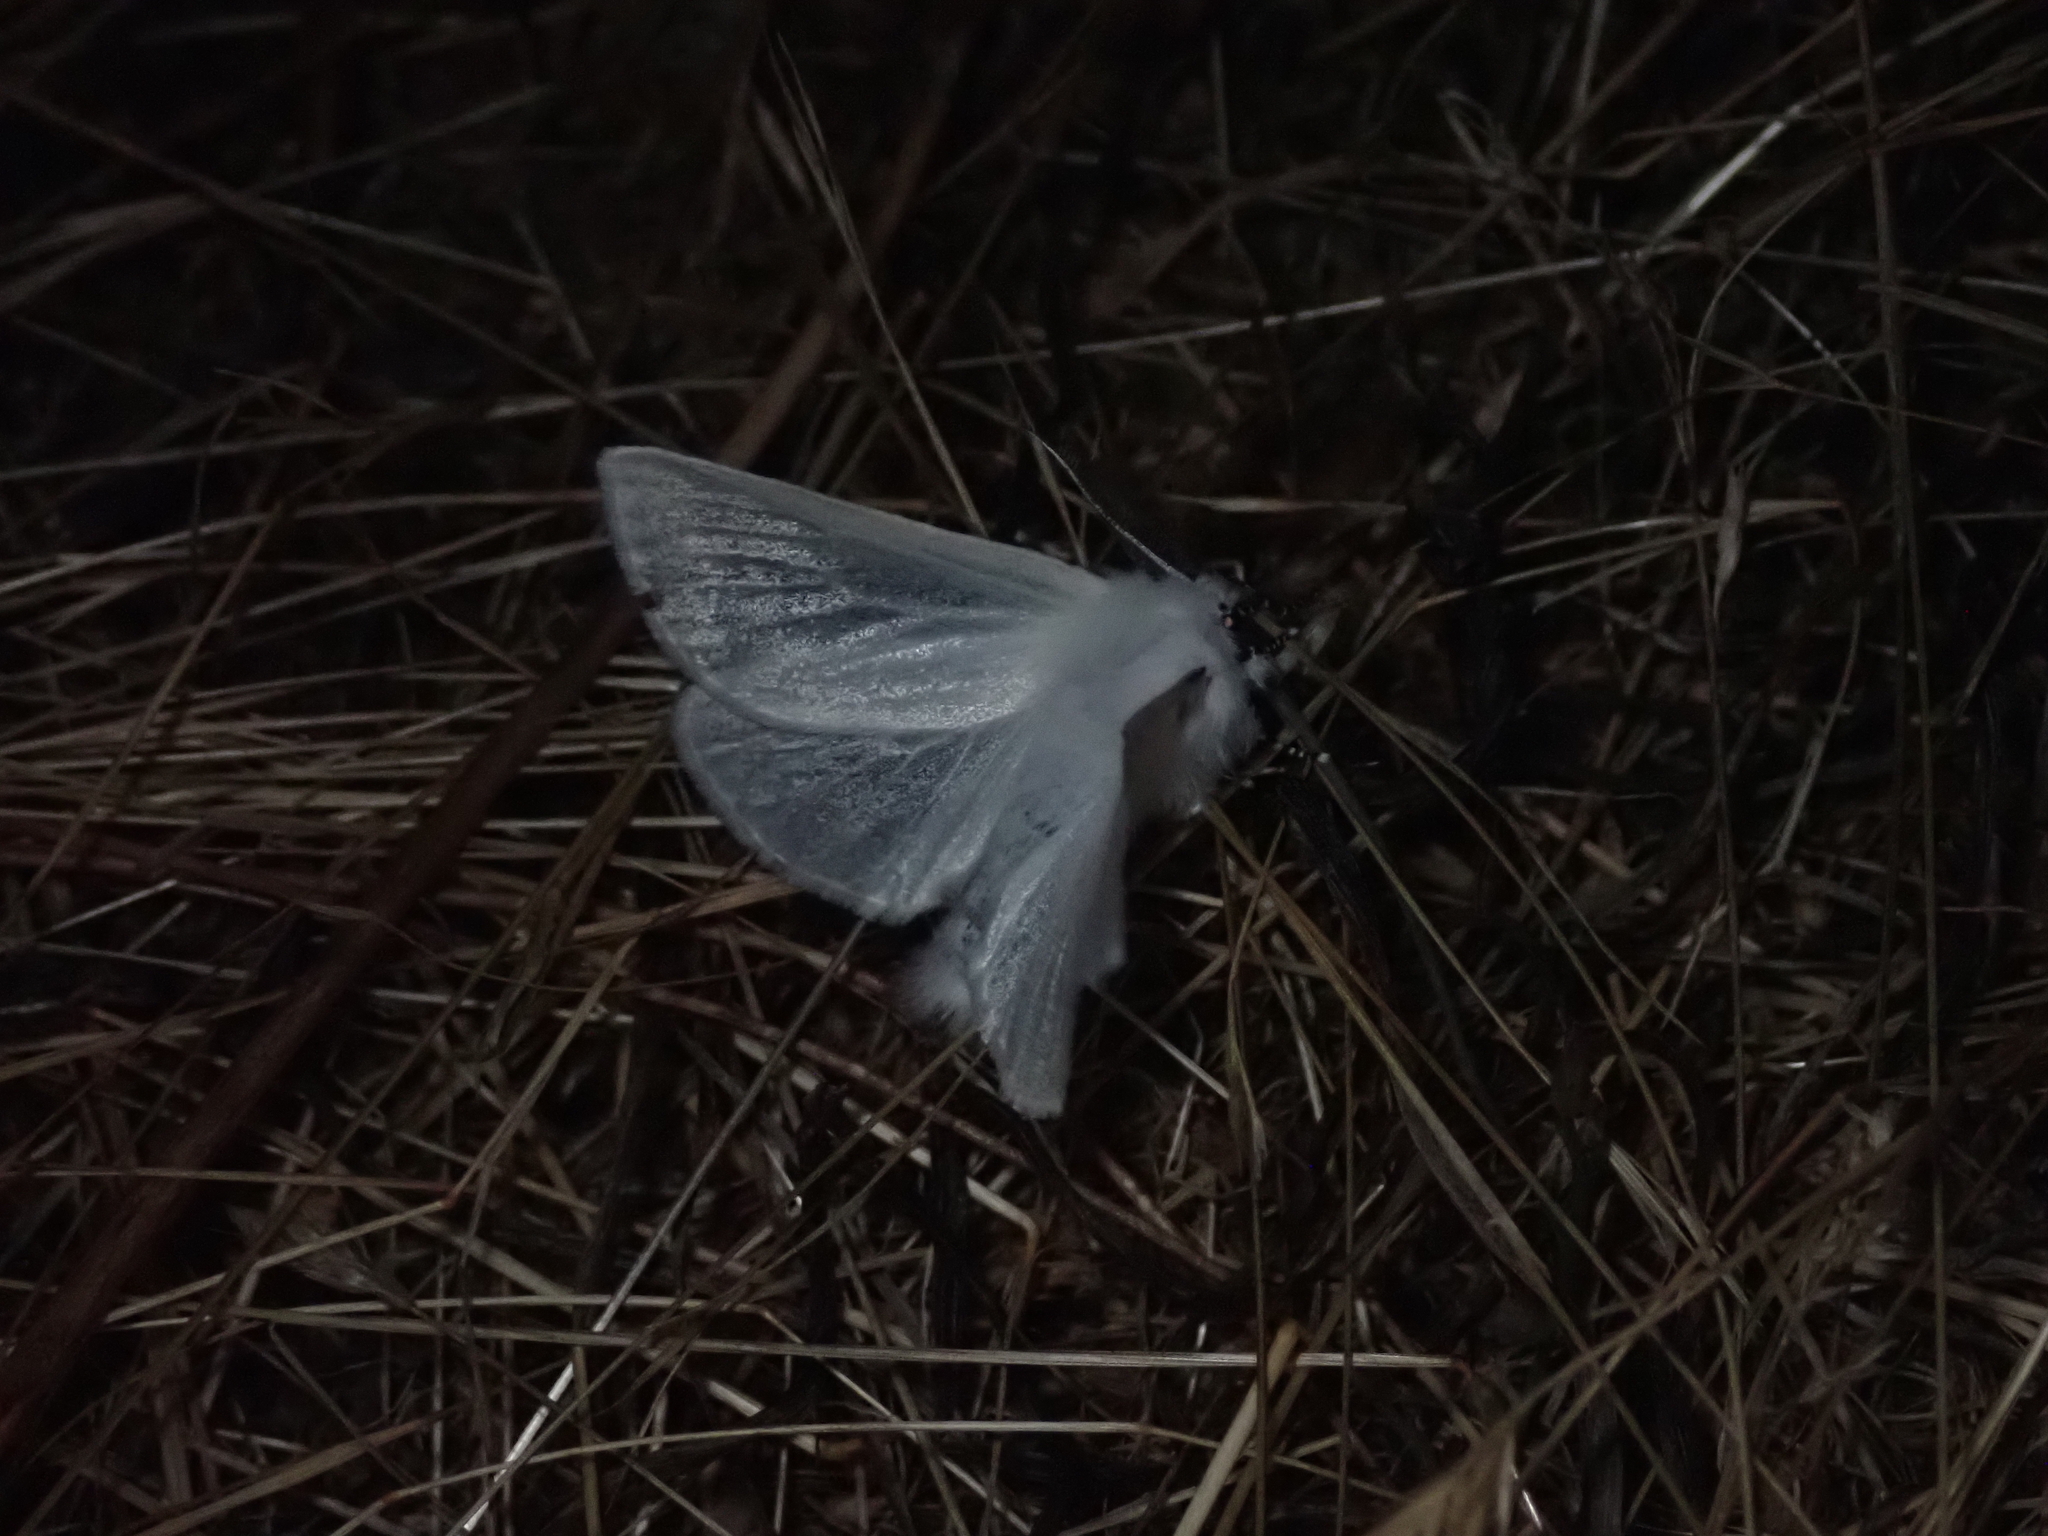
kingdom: Animalia
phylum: Arthropoda
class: Insecta
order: Lepidoptera
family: Erebidae
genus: Leucoma
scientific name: Leucoma salicis
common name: White satin moth
